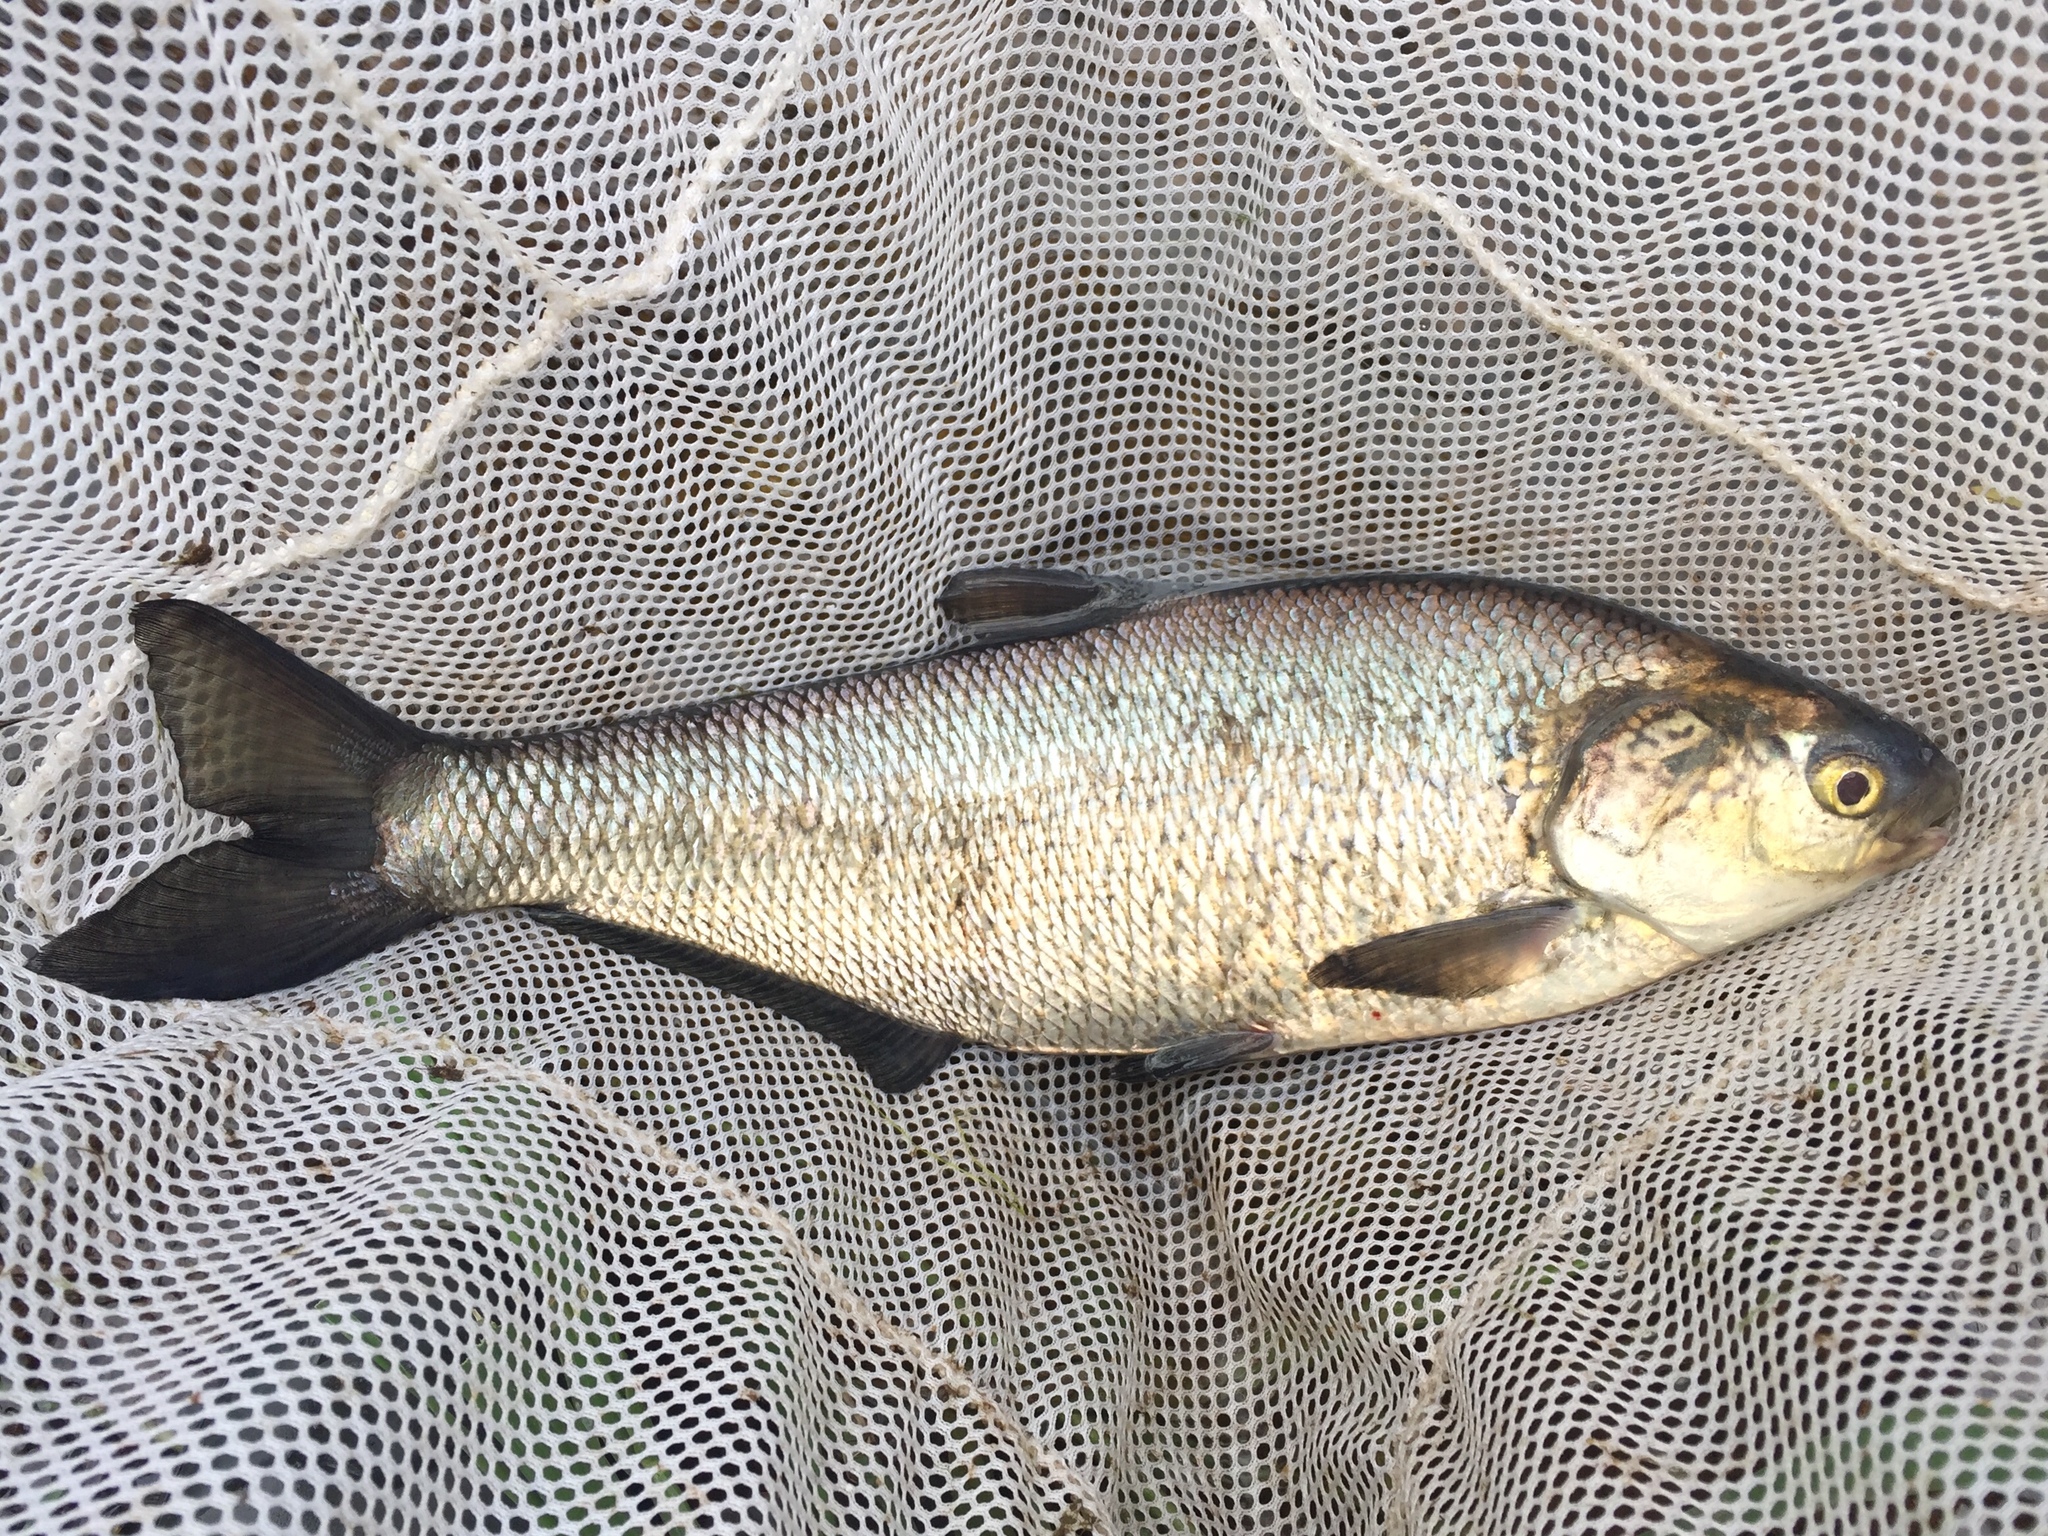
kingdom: Animalia
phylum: Chordata
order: Clupeiformes
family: Clupeidae
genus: Dorosoma
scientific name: Dorosoma cepedianum
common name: Gizzard shad
